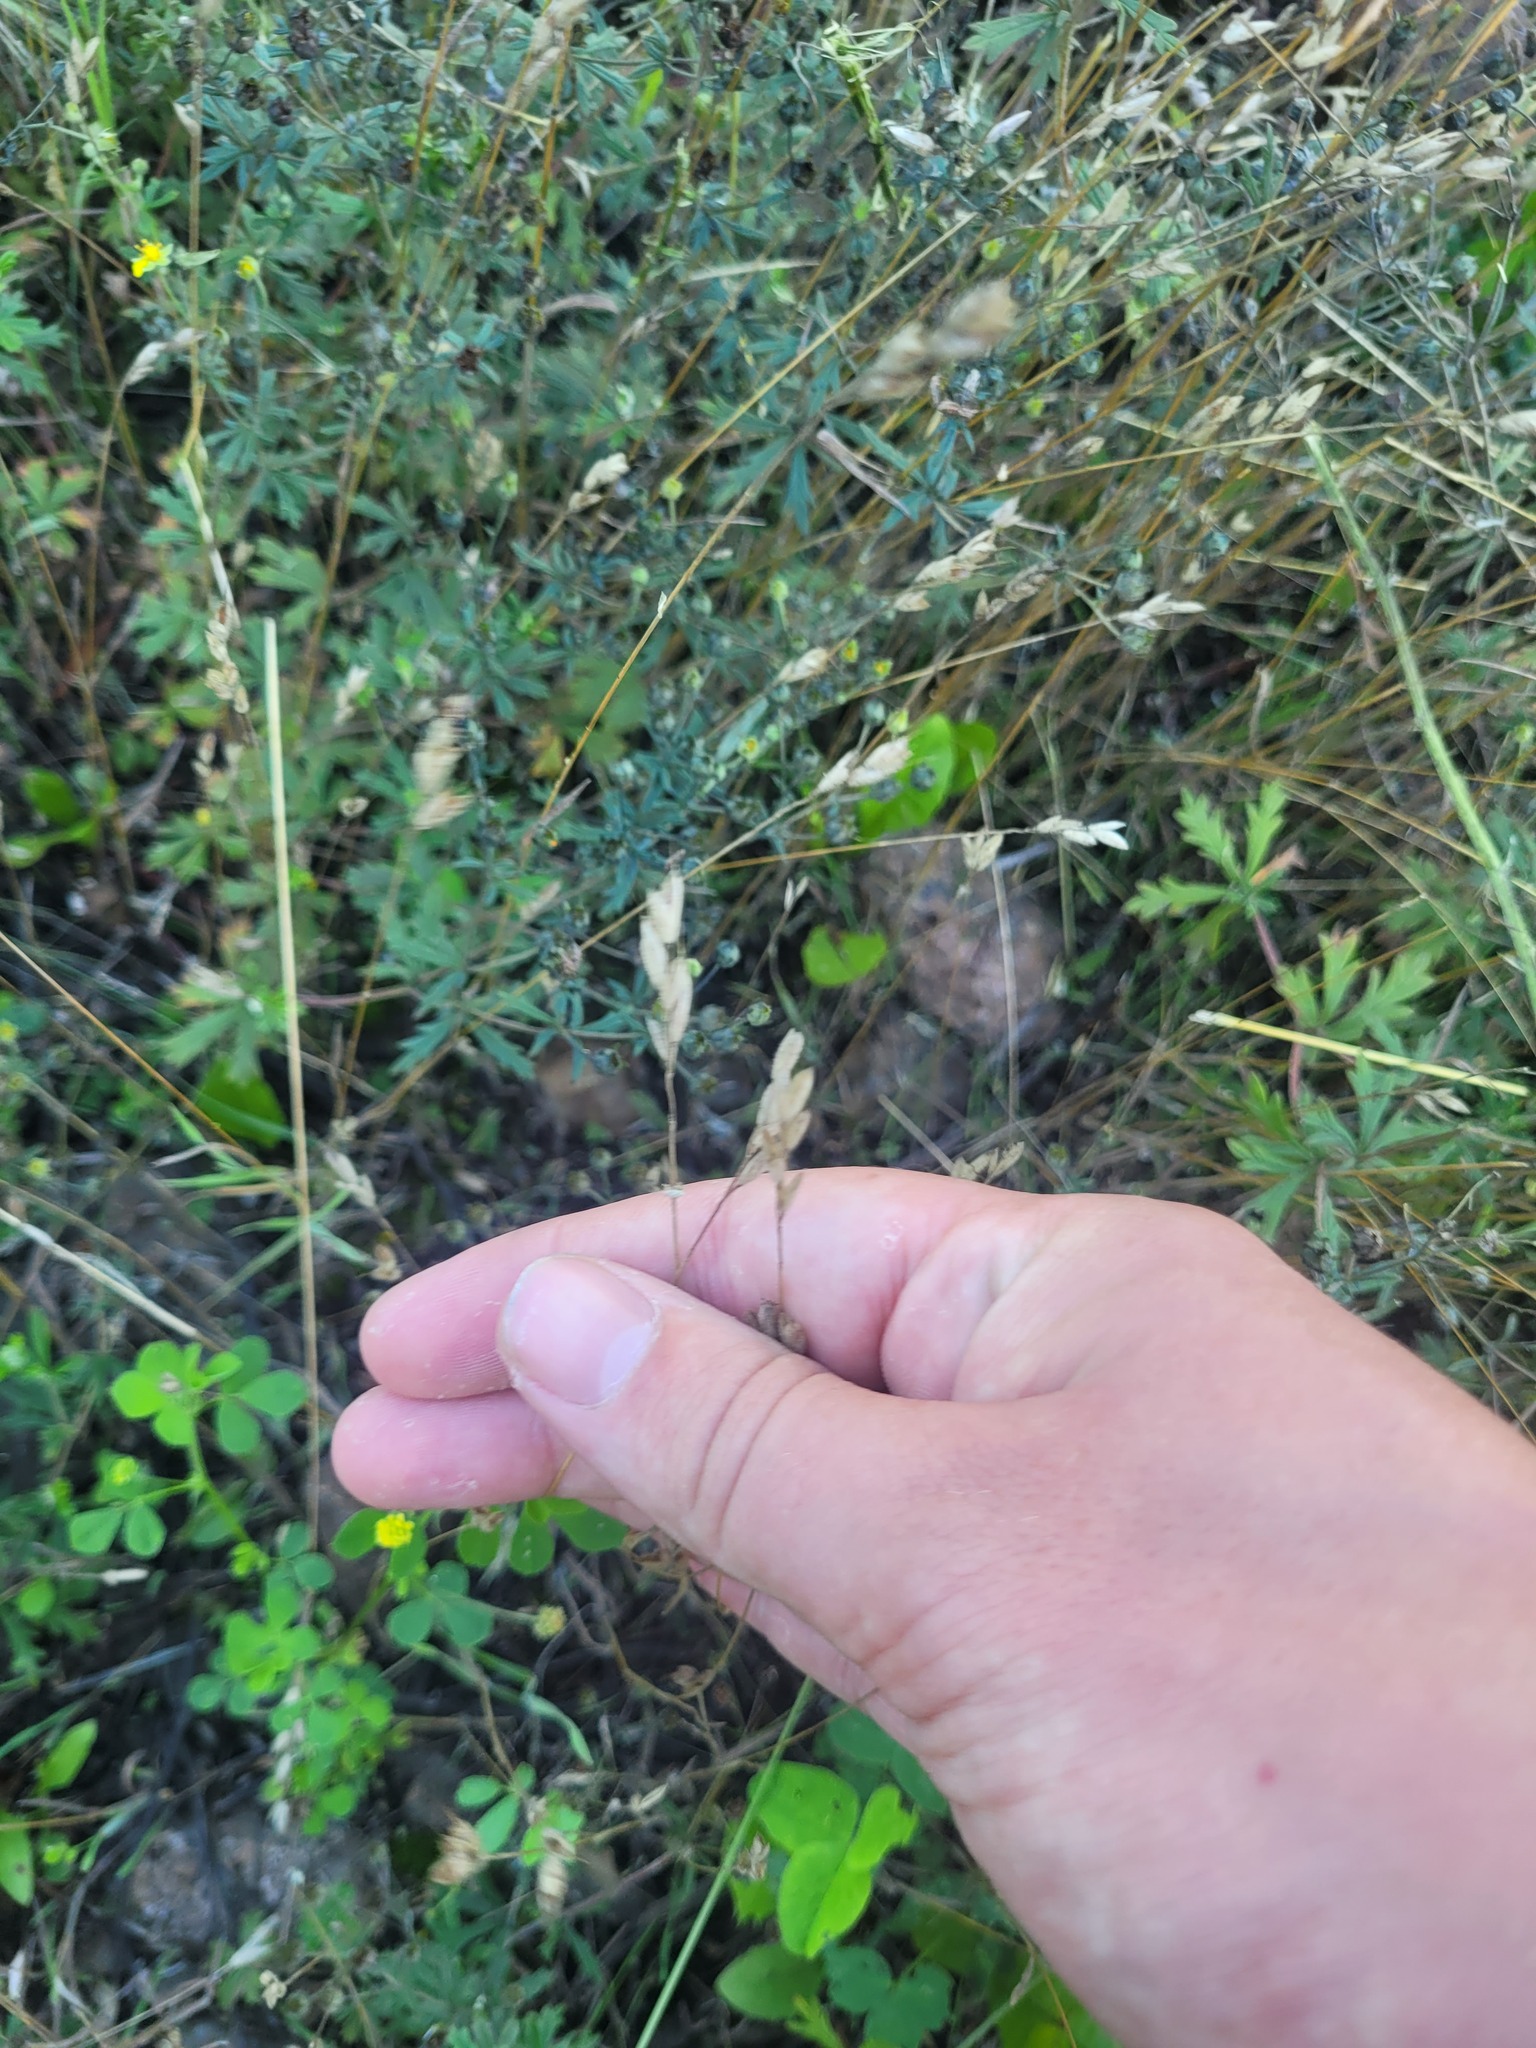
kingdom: Plantae
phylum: Tracheophyta
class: Liliopsida
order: Poales
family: Poaceae
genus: Bromus
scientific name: Bromus hordeaceus
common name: Soft brome
